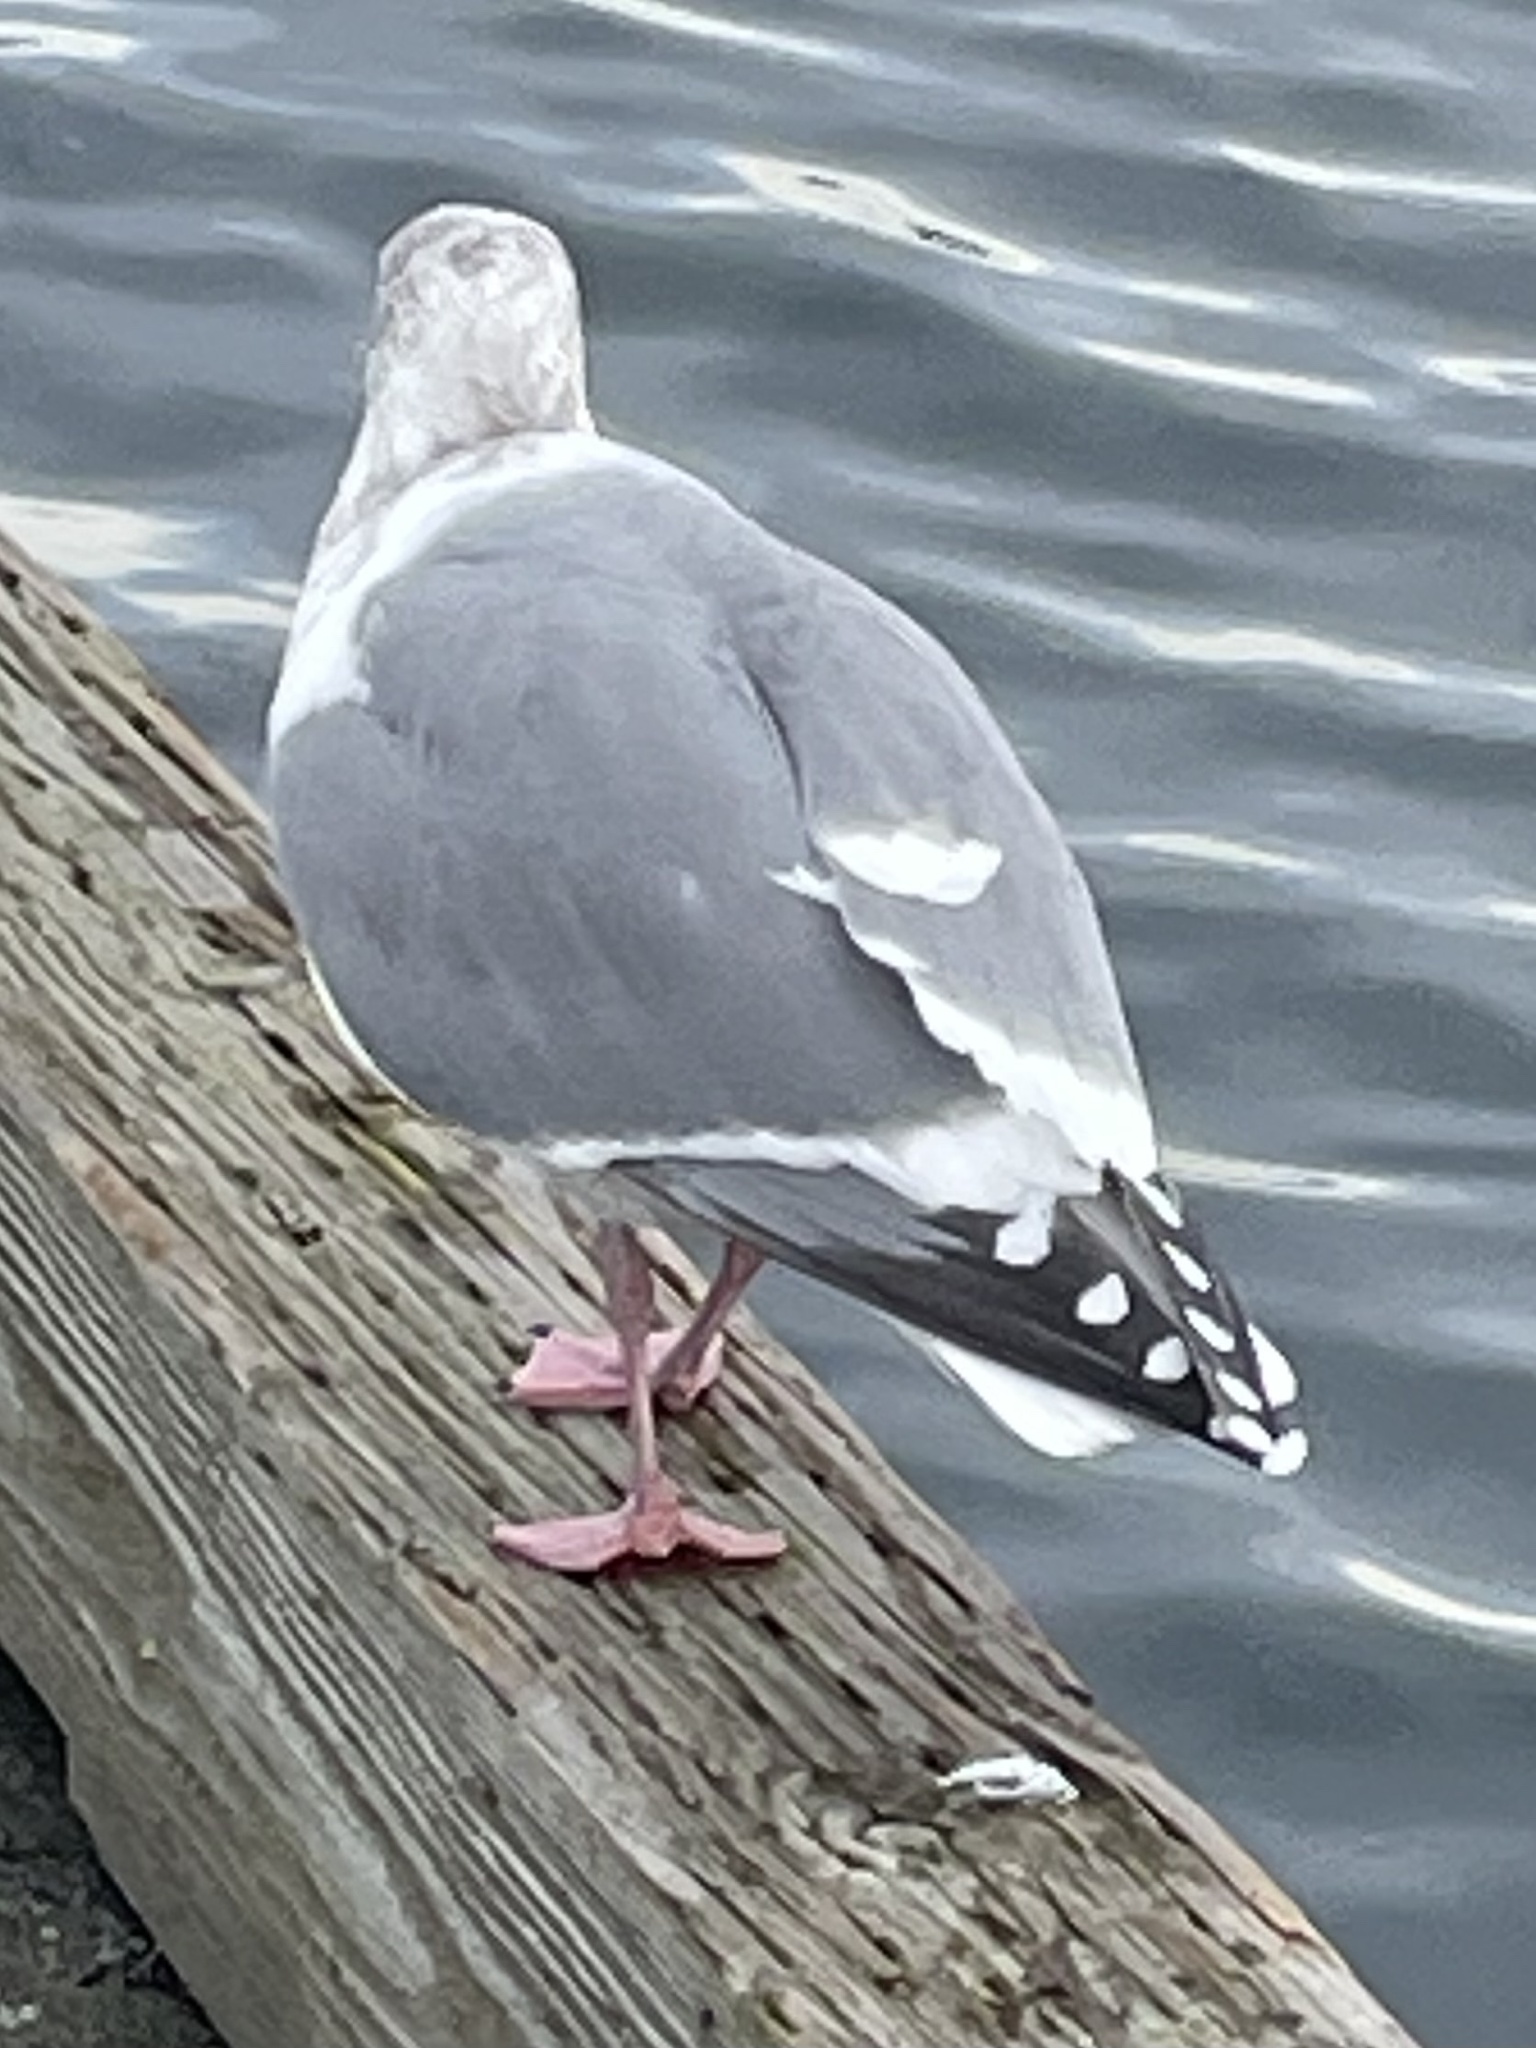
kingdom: Animalia
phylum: Chordata
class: Aves
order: Charadriiformes
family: Laridae
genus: Larus
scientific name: Larus
